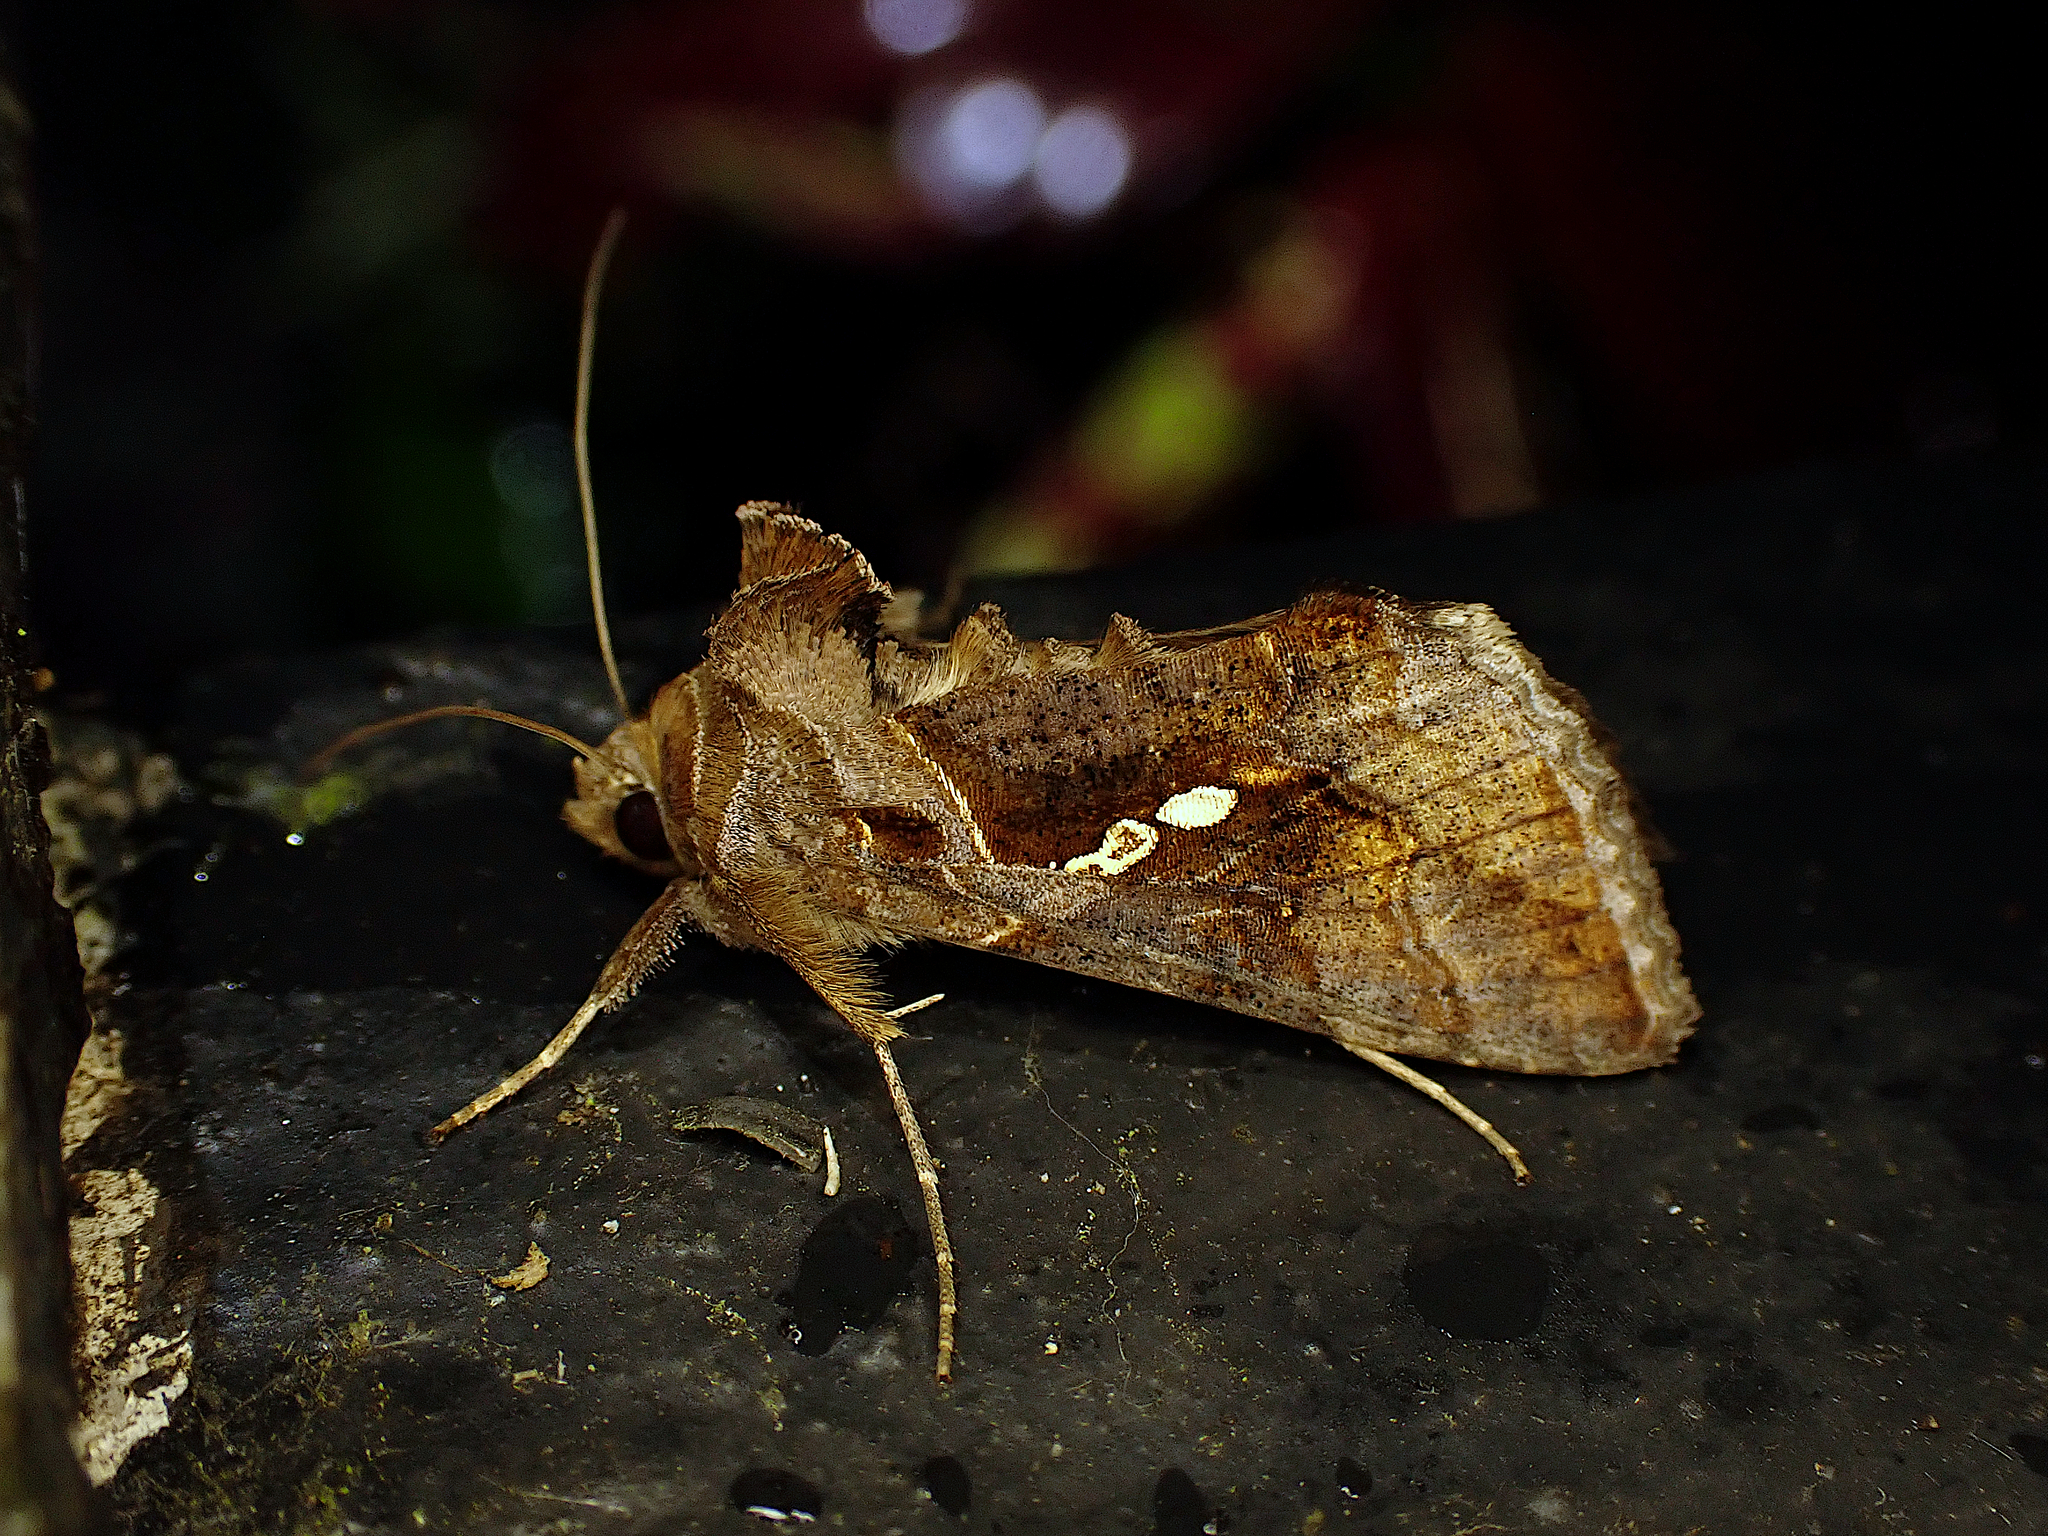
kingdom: Animalia
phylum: Arthropoda
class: Insecta
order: Lepidoptera
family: Noctuidae
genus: Chrysodeixis
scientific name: Chrysodeixis eriosoma
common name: Green garden looper
